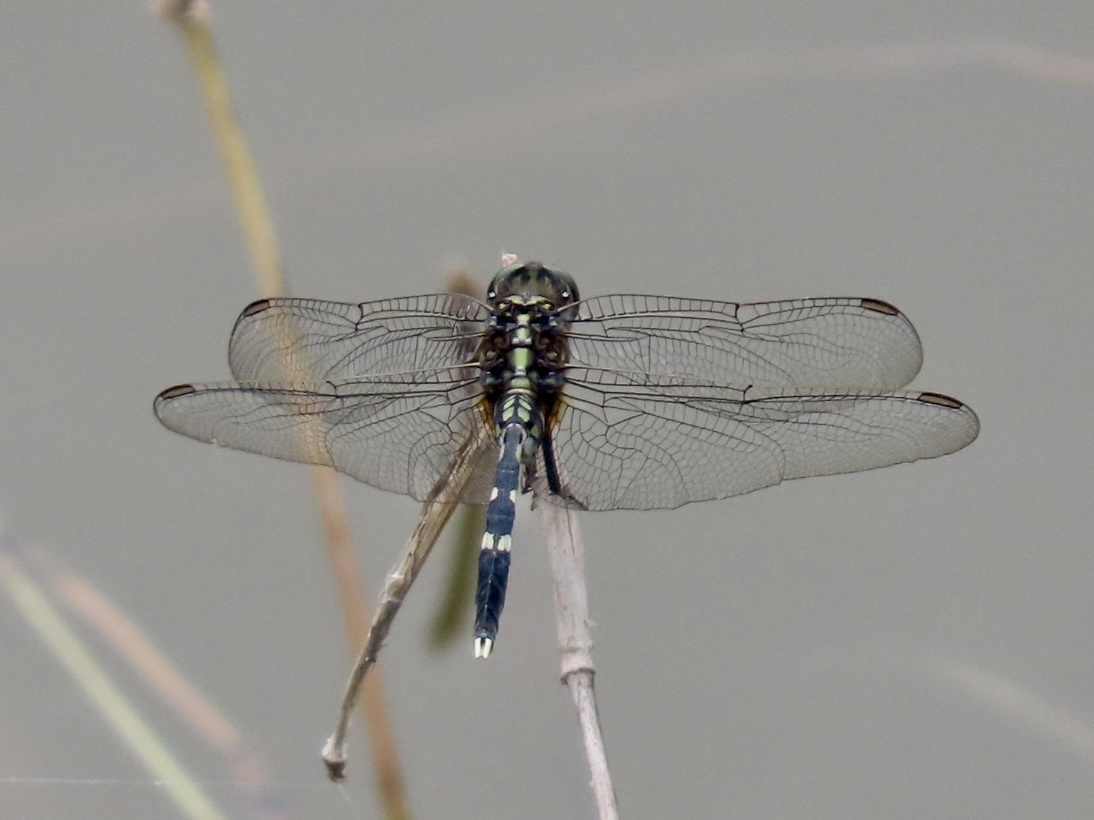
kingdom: Animalia
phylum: Arthropoda
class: Insecta
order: Odonata
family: Libellulidae
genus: Orthetrum
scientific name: Orthetrum sabina
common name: Slender skimmer
